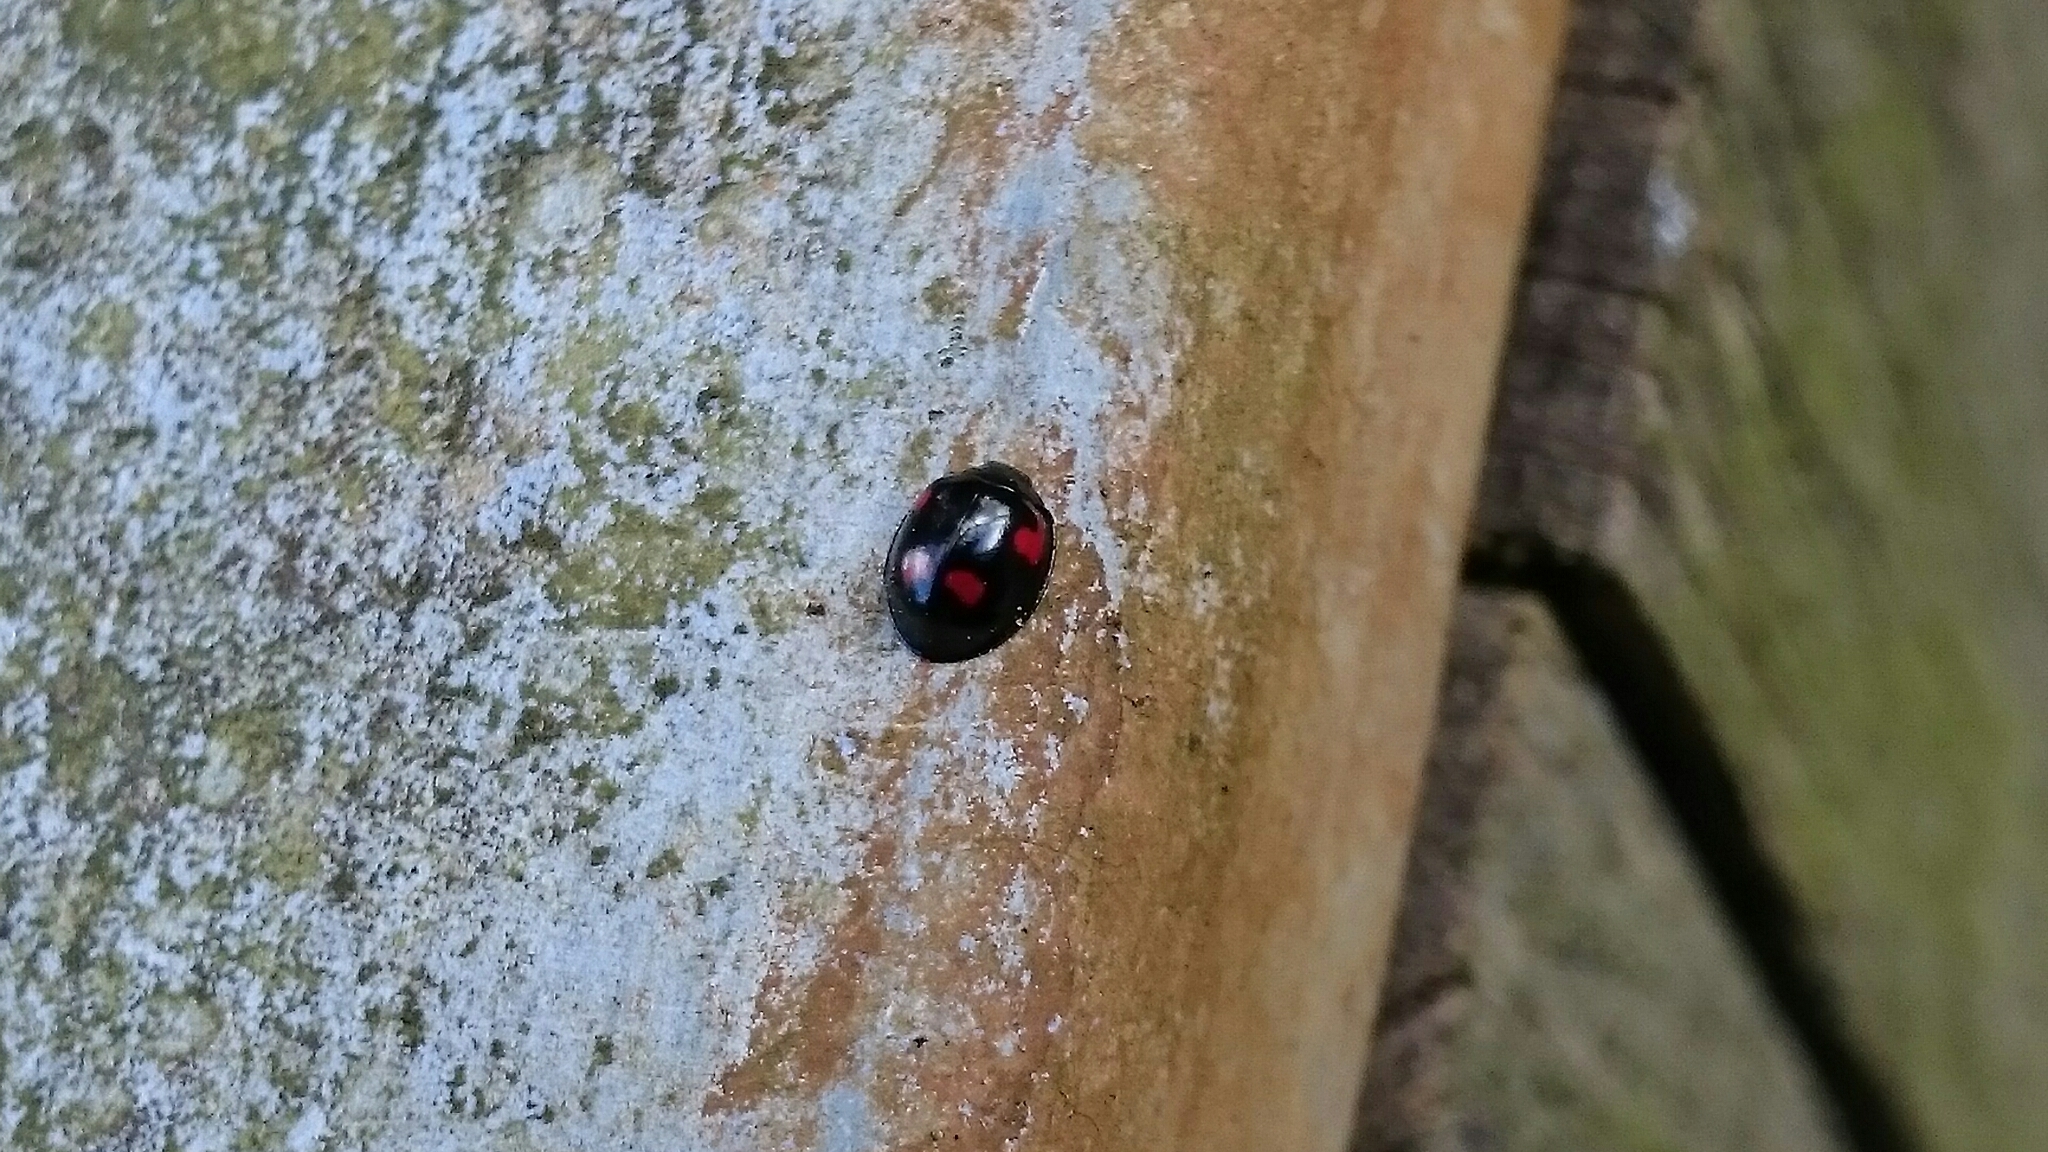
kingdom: Animalia
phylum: Arthropoda
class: Insecta
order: Coleoptera
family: Coccinellidae
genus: Brumus
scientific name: Brumus quadripustulatus
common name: Ladybird beetle
